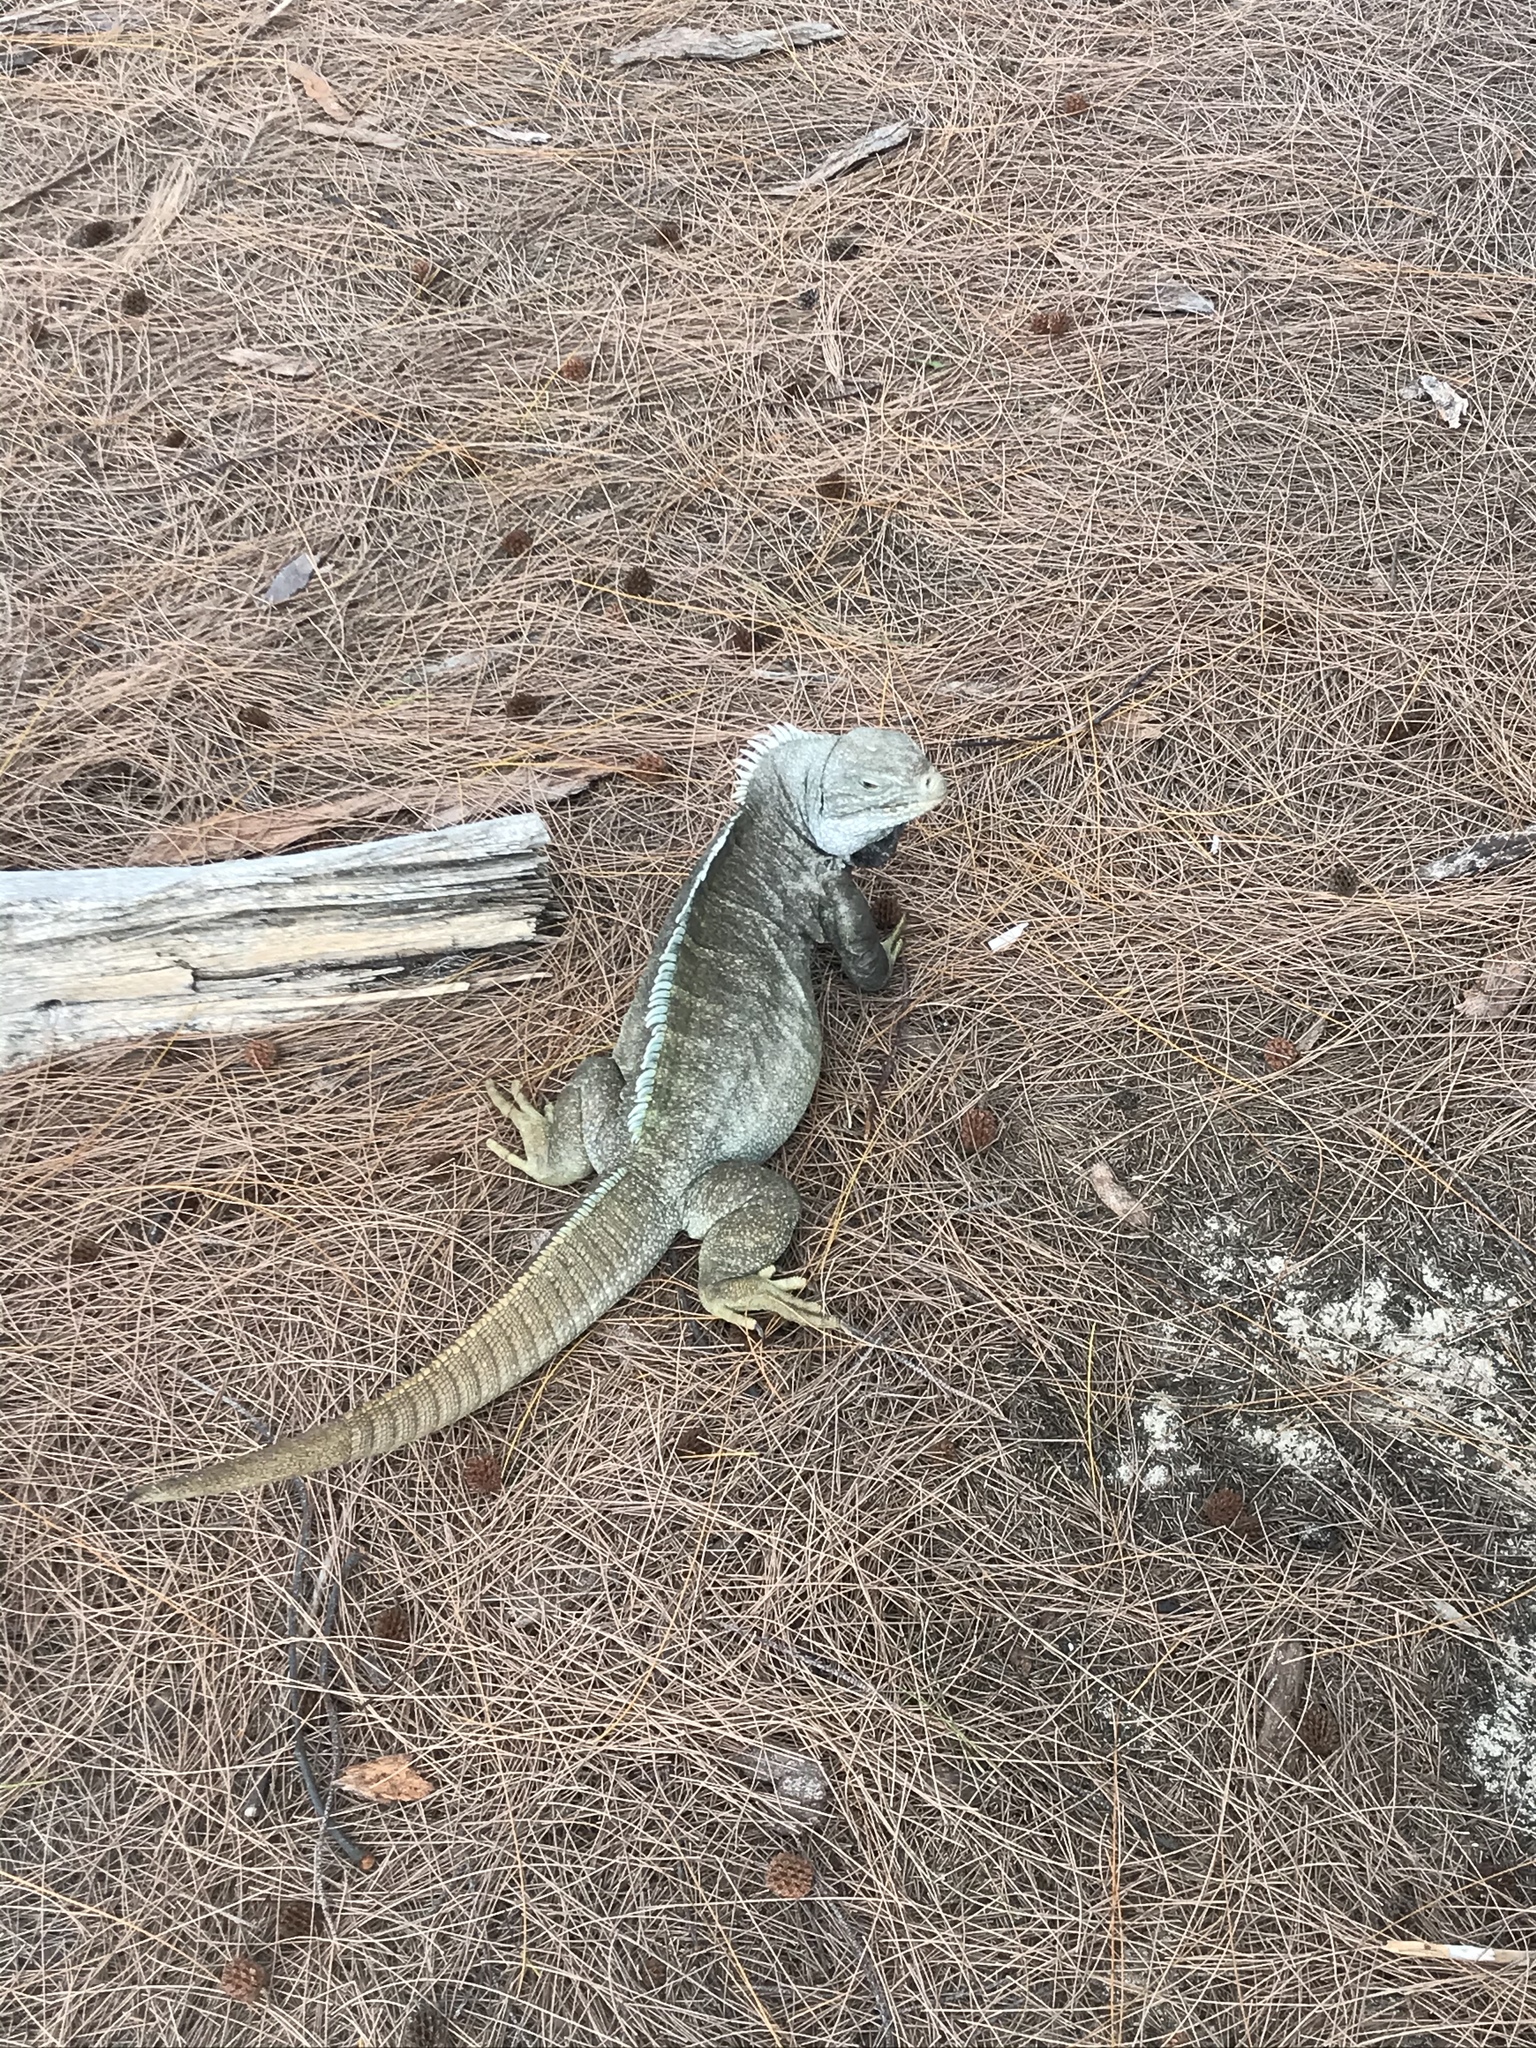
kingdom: Animalia
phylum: Chordata
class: Squamata
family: Iguanidae
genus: Cyclura
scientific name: Cyclura carinata
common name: Turks island iguana
